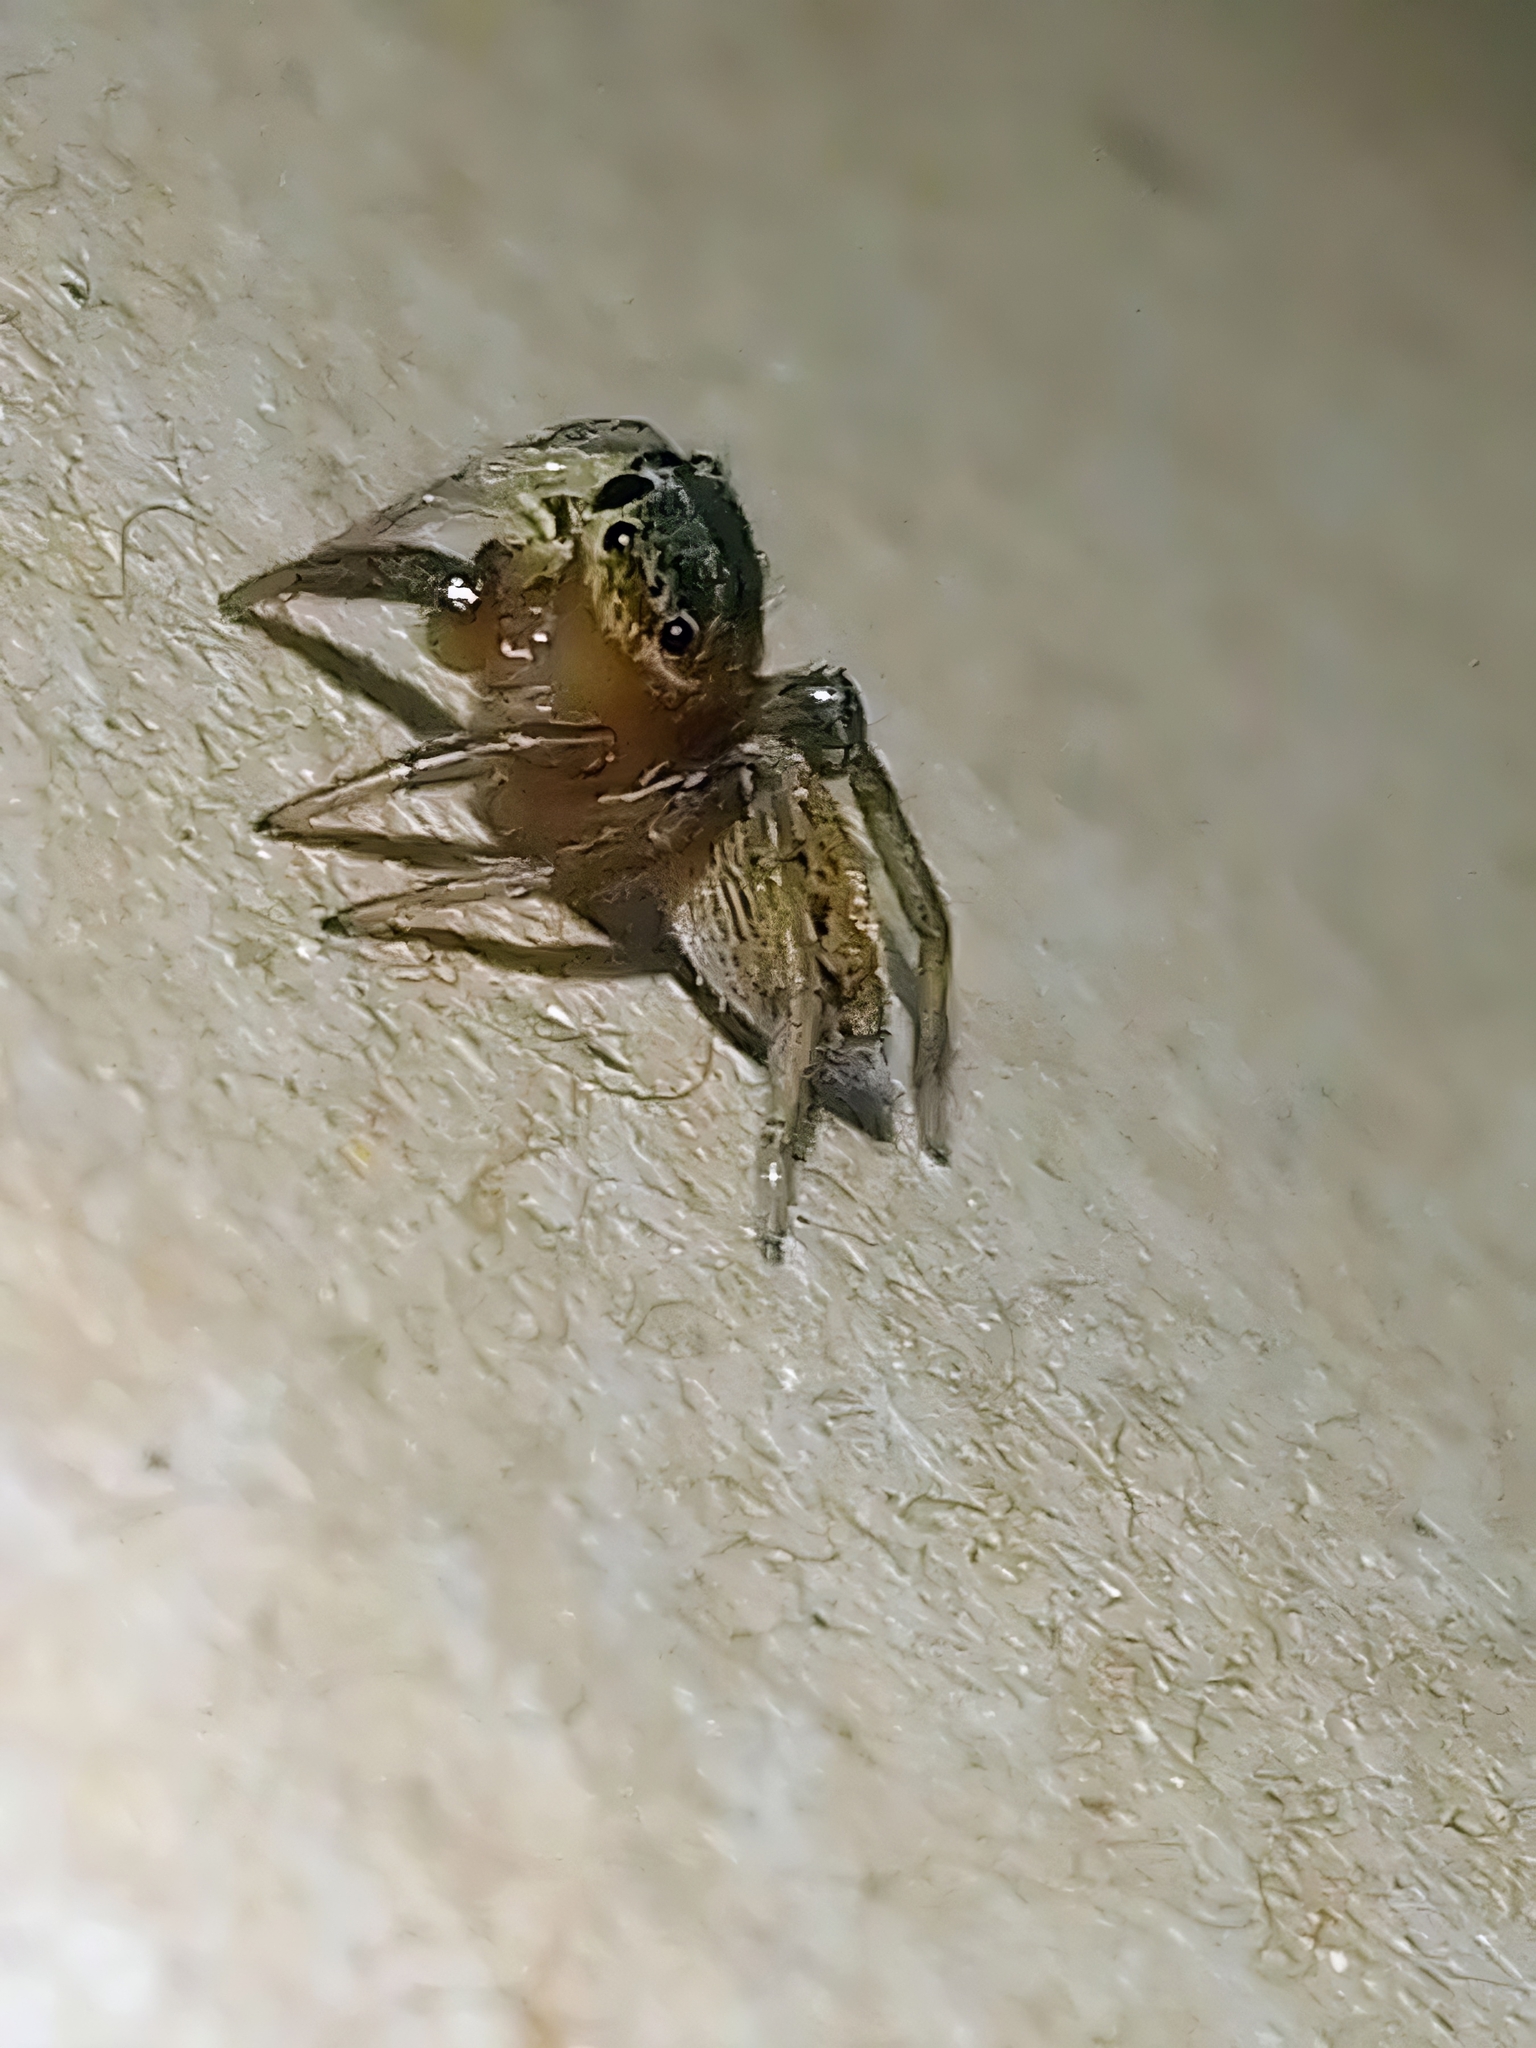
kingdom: Animalia
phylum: Arthropoda
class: Arachnida
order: Araneae
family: Salticidae
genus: Hasarius
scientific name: Hasarius adansoni
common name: Jumping spider
